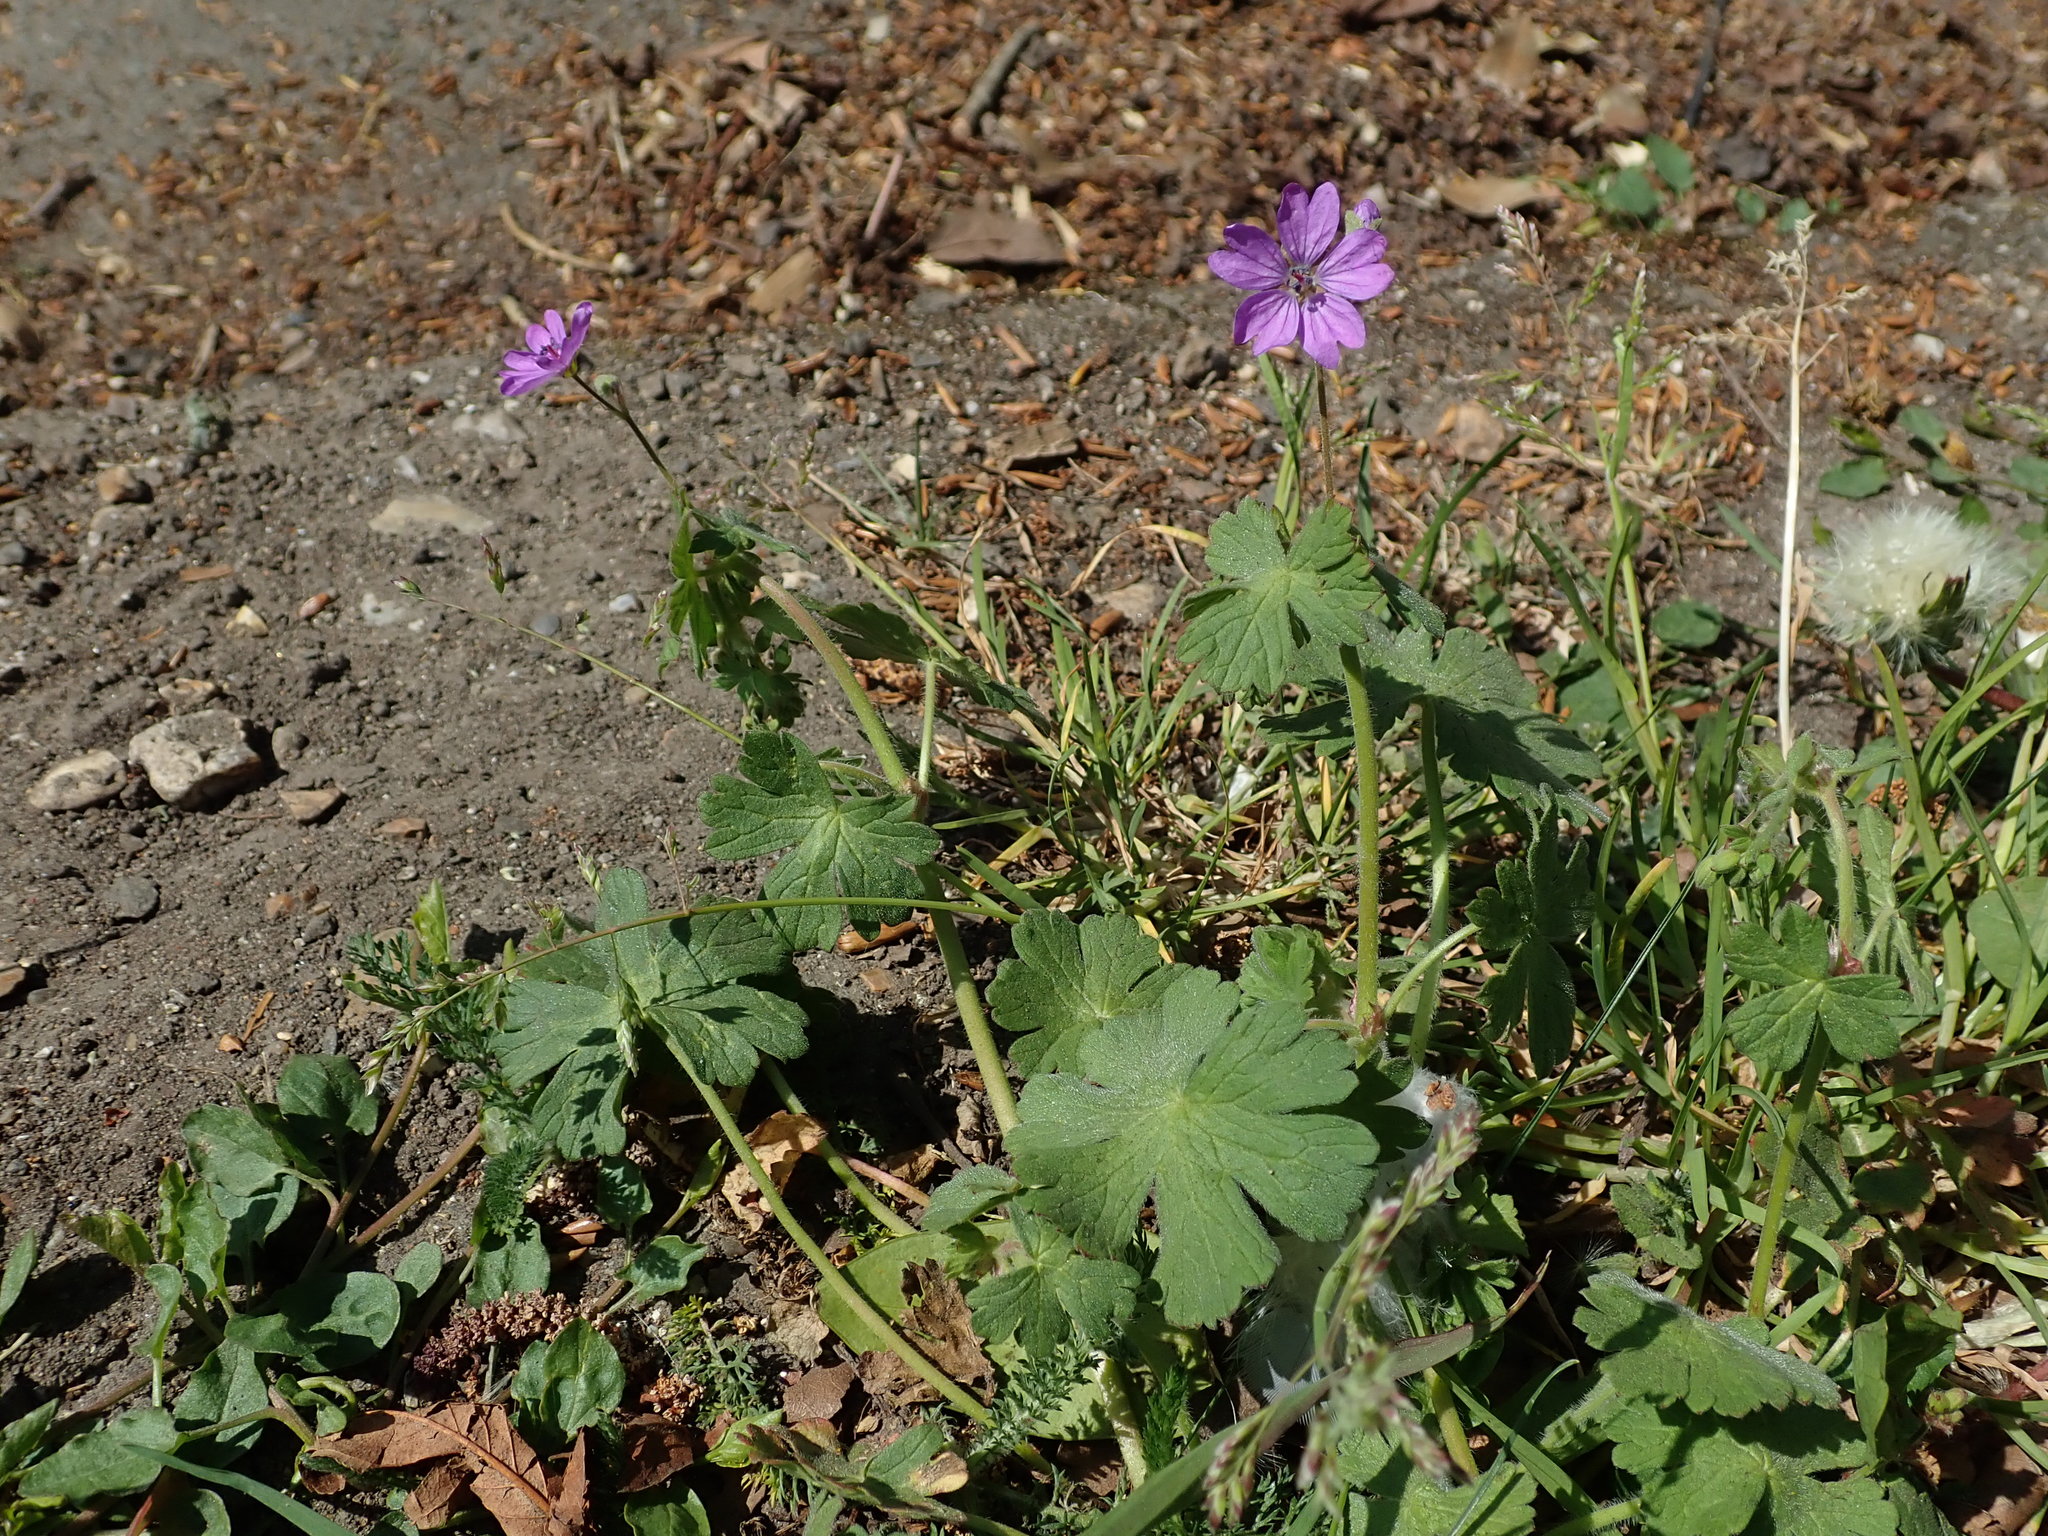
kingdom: Plantae
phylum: Tracheophyta
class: Magnoliopsida
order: Geraniales
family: Geraniaceae
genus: Geranium
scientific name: Geranium pyrenaicum
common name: Hedgerow crane's-bill
